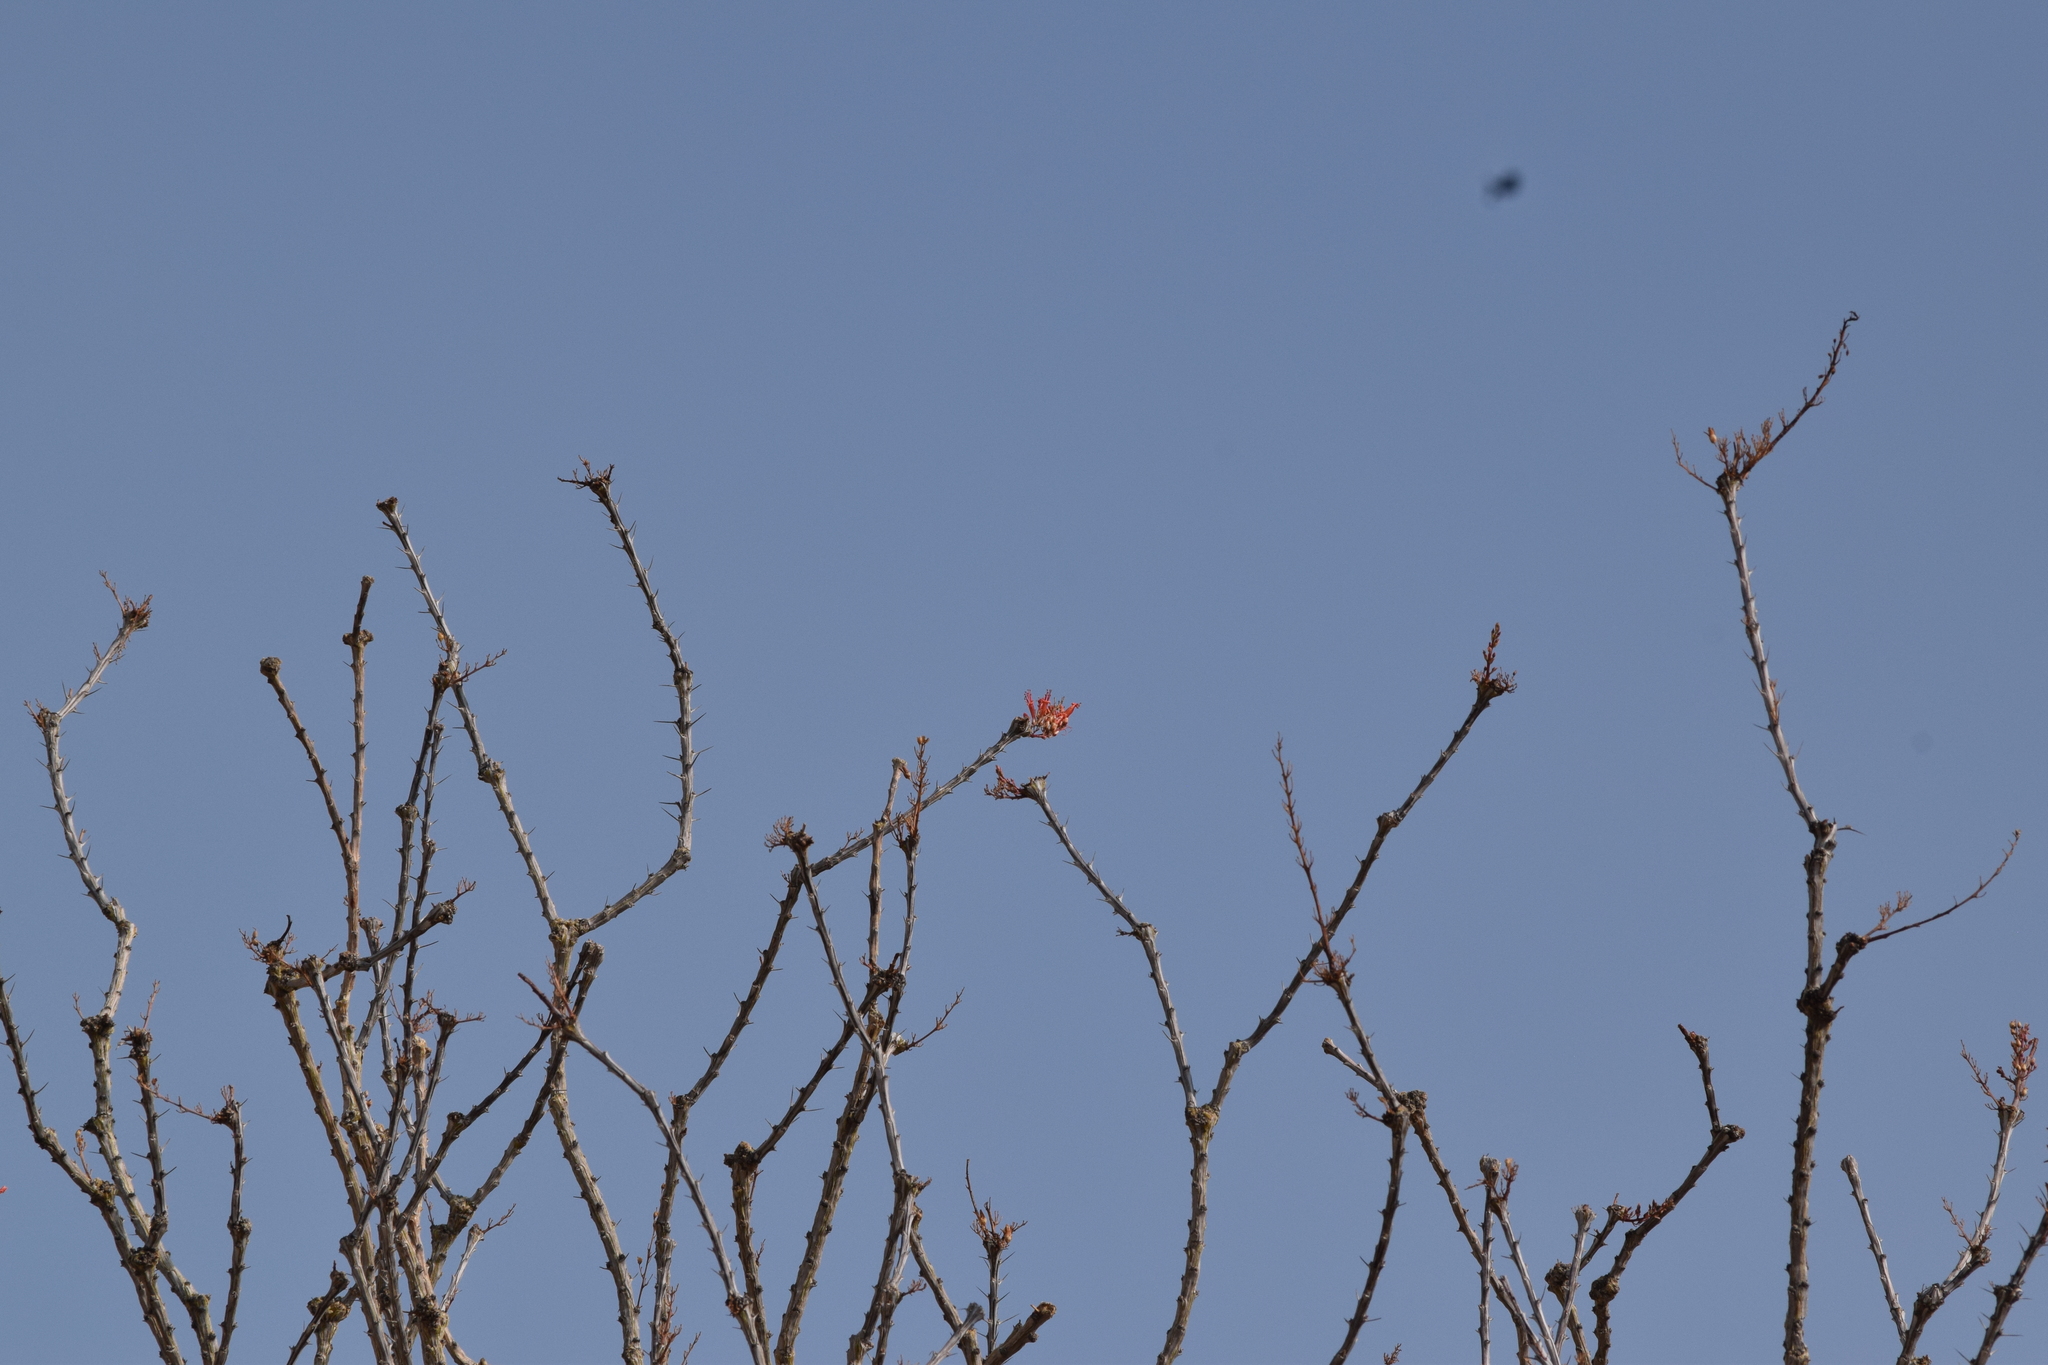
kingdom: Plantae
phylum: Tracheophyta
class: Magnoliopsida
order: Ericales
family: Fouquieriaceae
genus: Fouquieria
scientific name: Fouquieria splendens
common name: Vine-cactus
